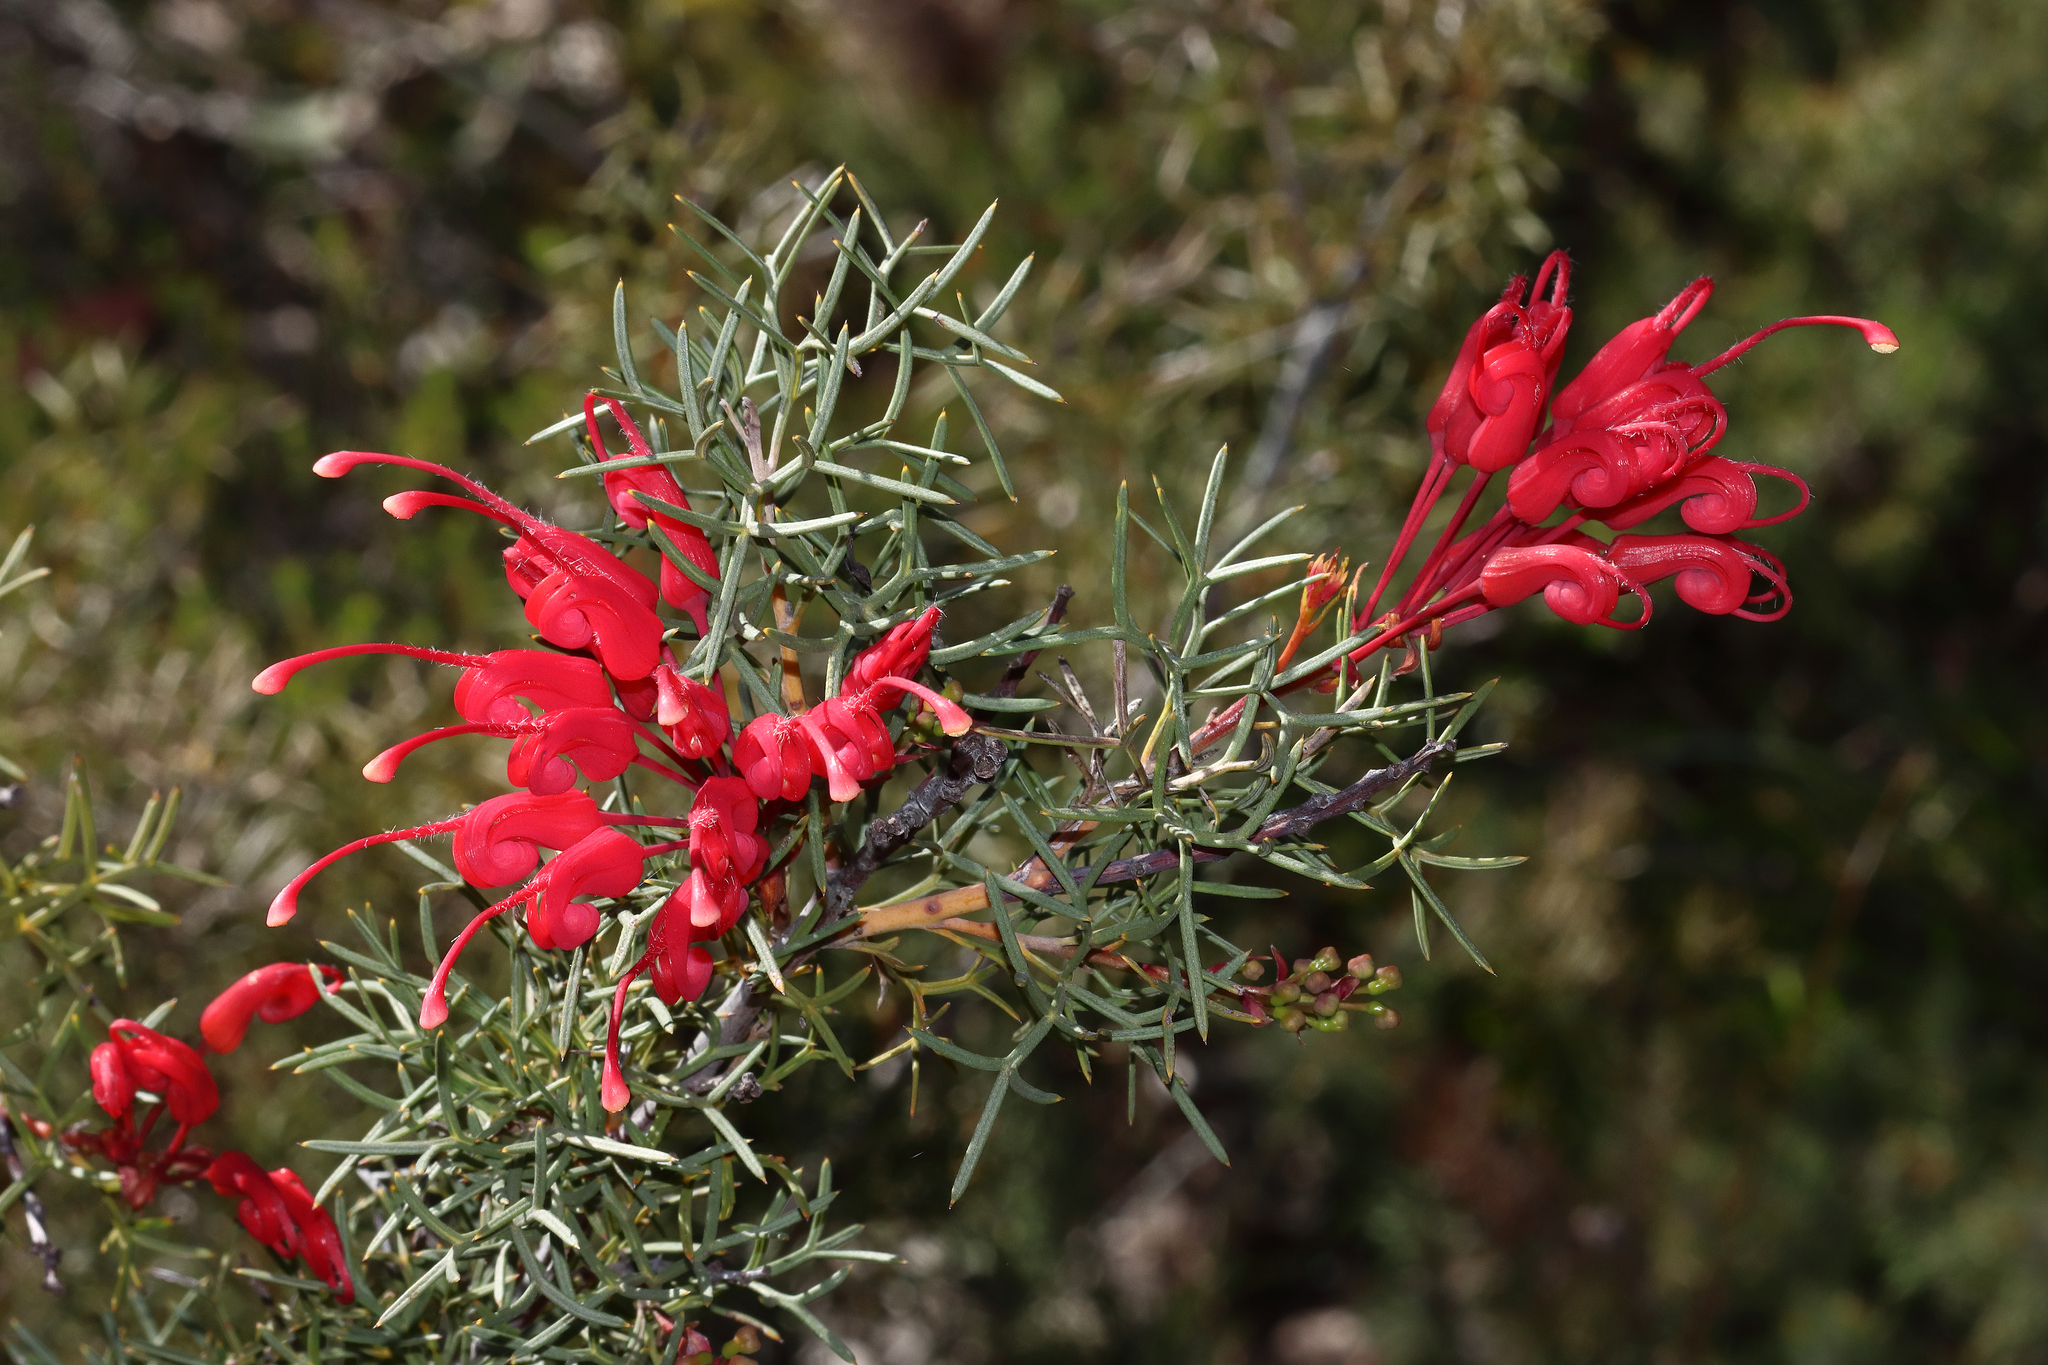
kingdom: Plantae
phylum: Tracheophyta
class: Magnoliopsida
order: Proteales
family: Proteaceae
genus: Grevillea
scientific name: Grevillea wilsonii
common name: Fire-wheel
